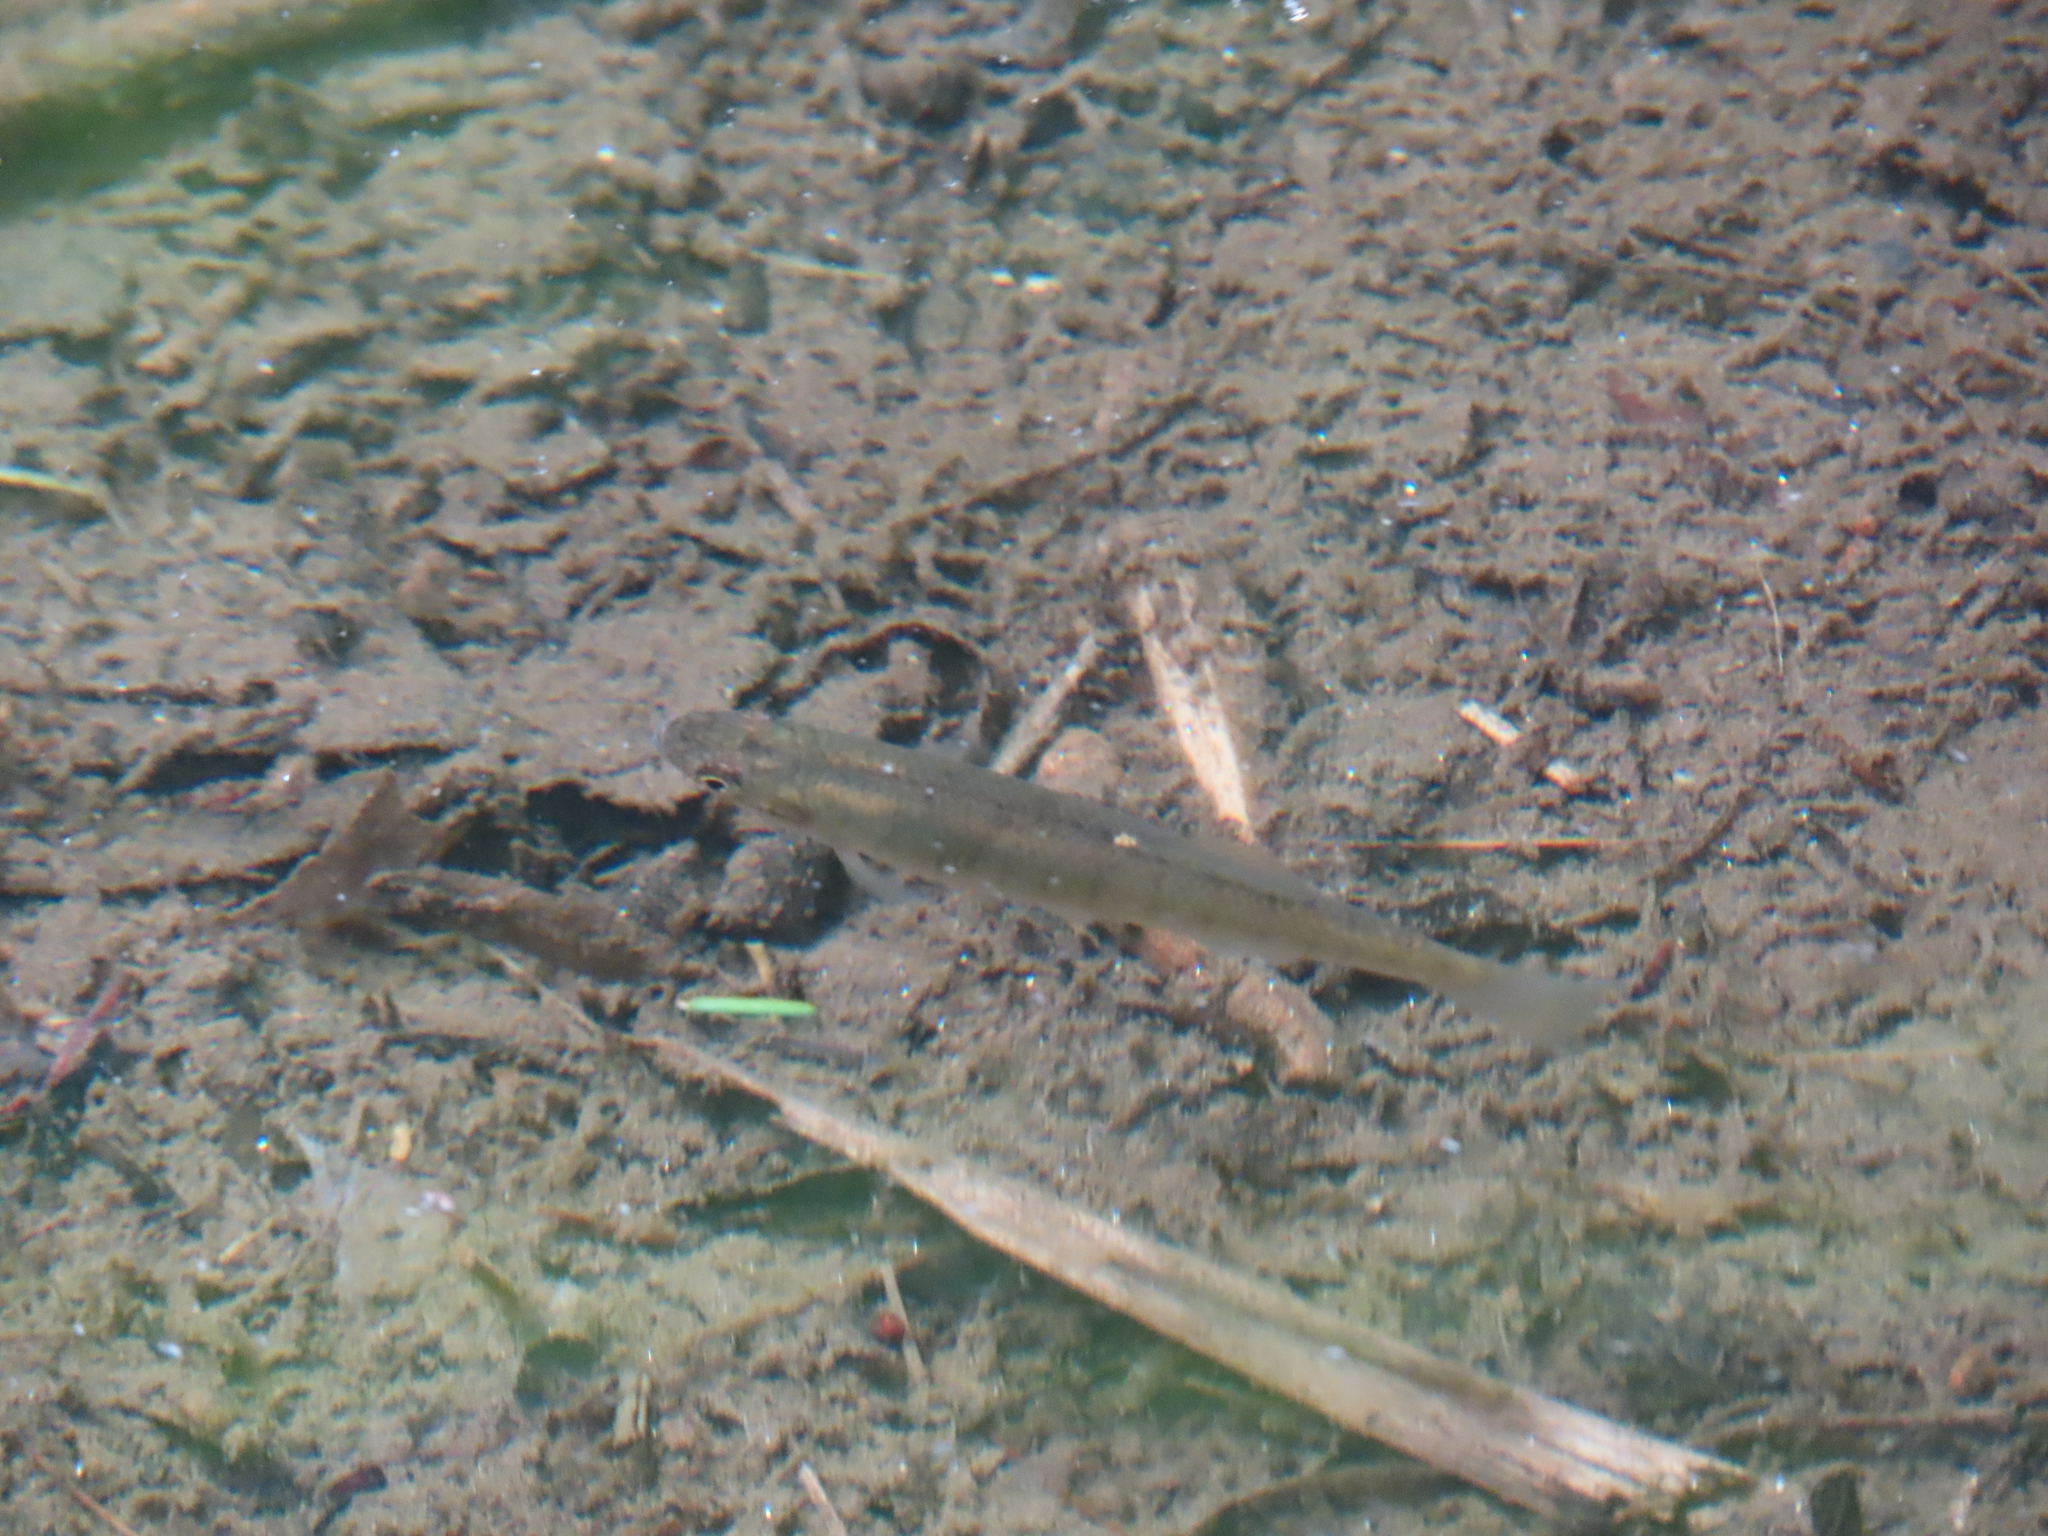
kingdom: Animalia
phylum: Chordata
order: Cyprinodontiformes
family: Fundulidae
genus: Fundulus
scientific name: Fundulus diaphanus
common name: Banded killifish
